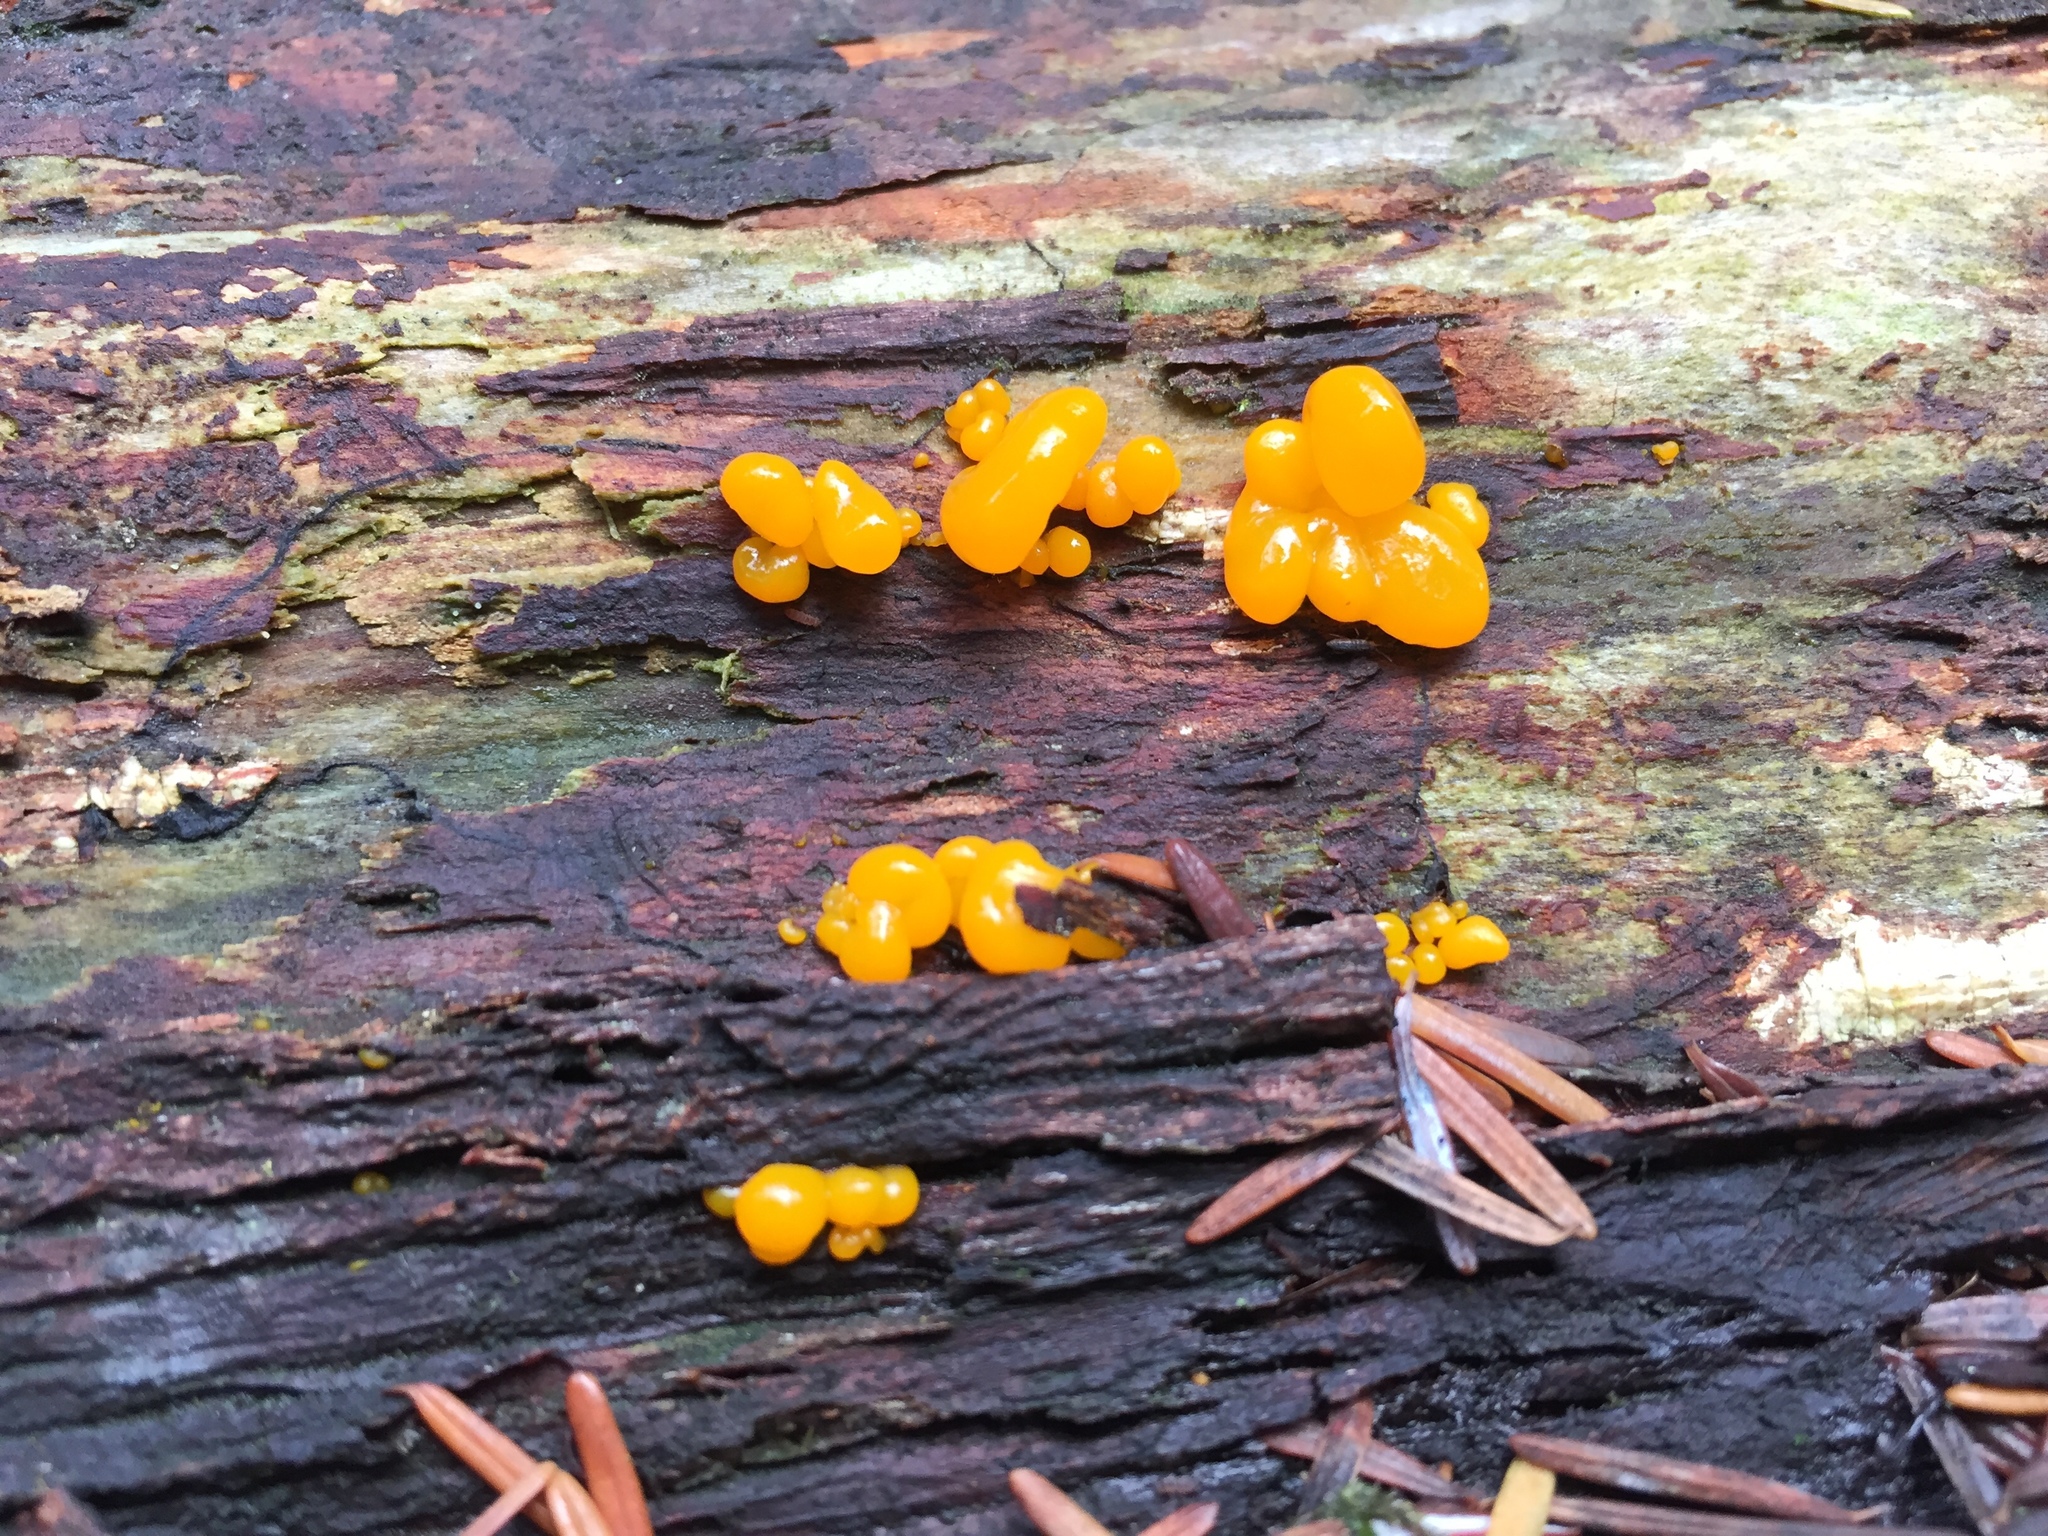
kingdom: Fungi
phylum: Basidiomycota
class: Dacrymycetes
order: Dacrymycetales
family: Dacrymycetaceae
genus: Dacrymyces
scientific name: Dacrymyces chrysospermus
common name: Orange jelly spot
